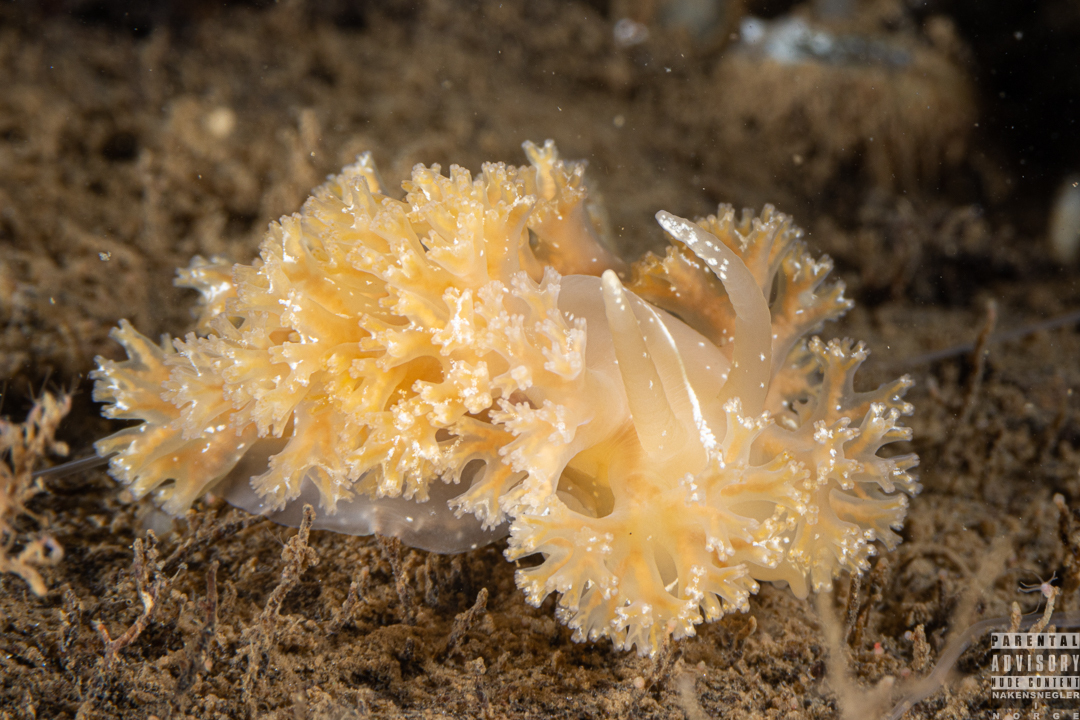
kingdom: Animalia
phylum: Mollusca
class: Gastropoda
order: Nudibranchia
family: Heroidae
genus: Hero
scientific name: Hero formosa
